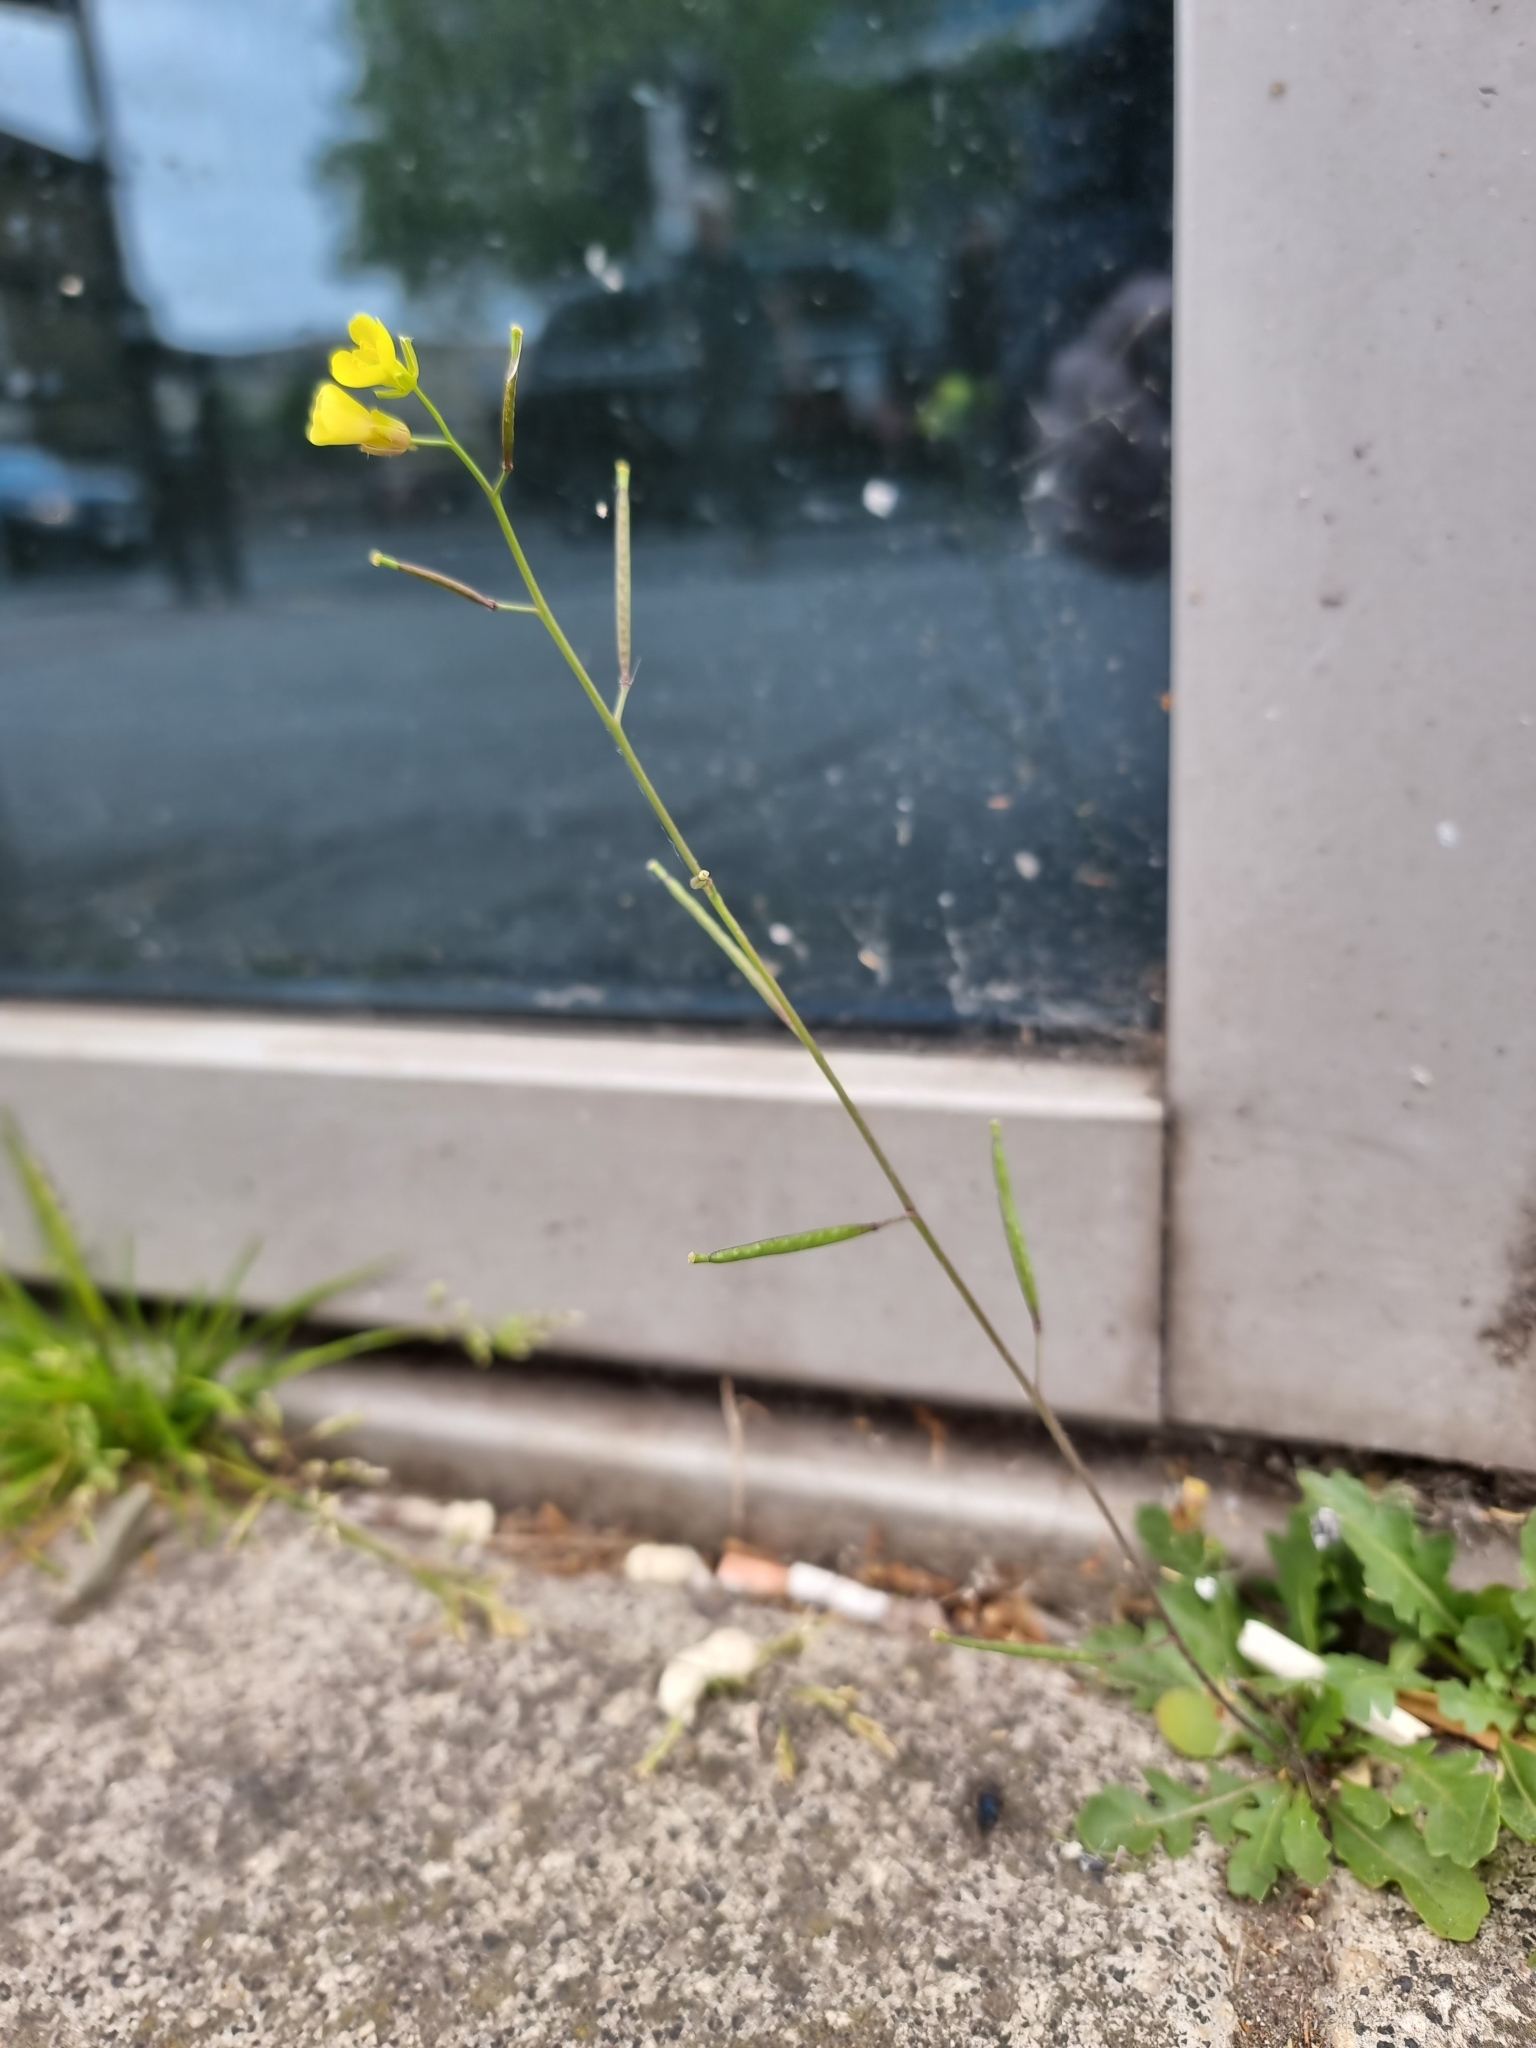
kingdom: Plantae
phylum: Tracheophyta
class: Magnoliopsida
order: Brassicales
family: Brassicaceae
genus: Diplotaxis
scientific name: Diplotaxis muralis
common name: Annual wall-rocket
